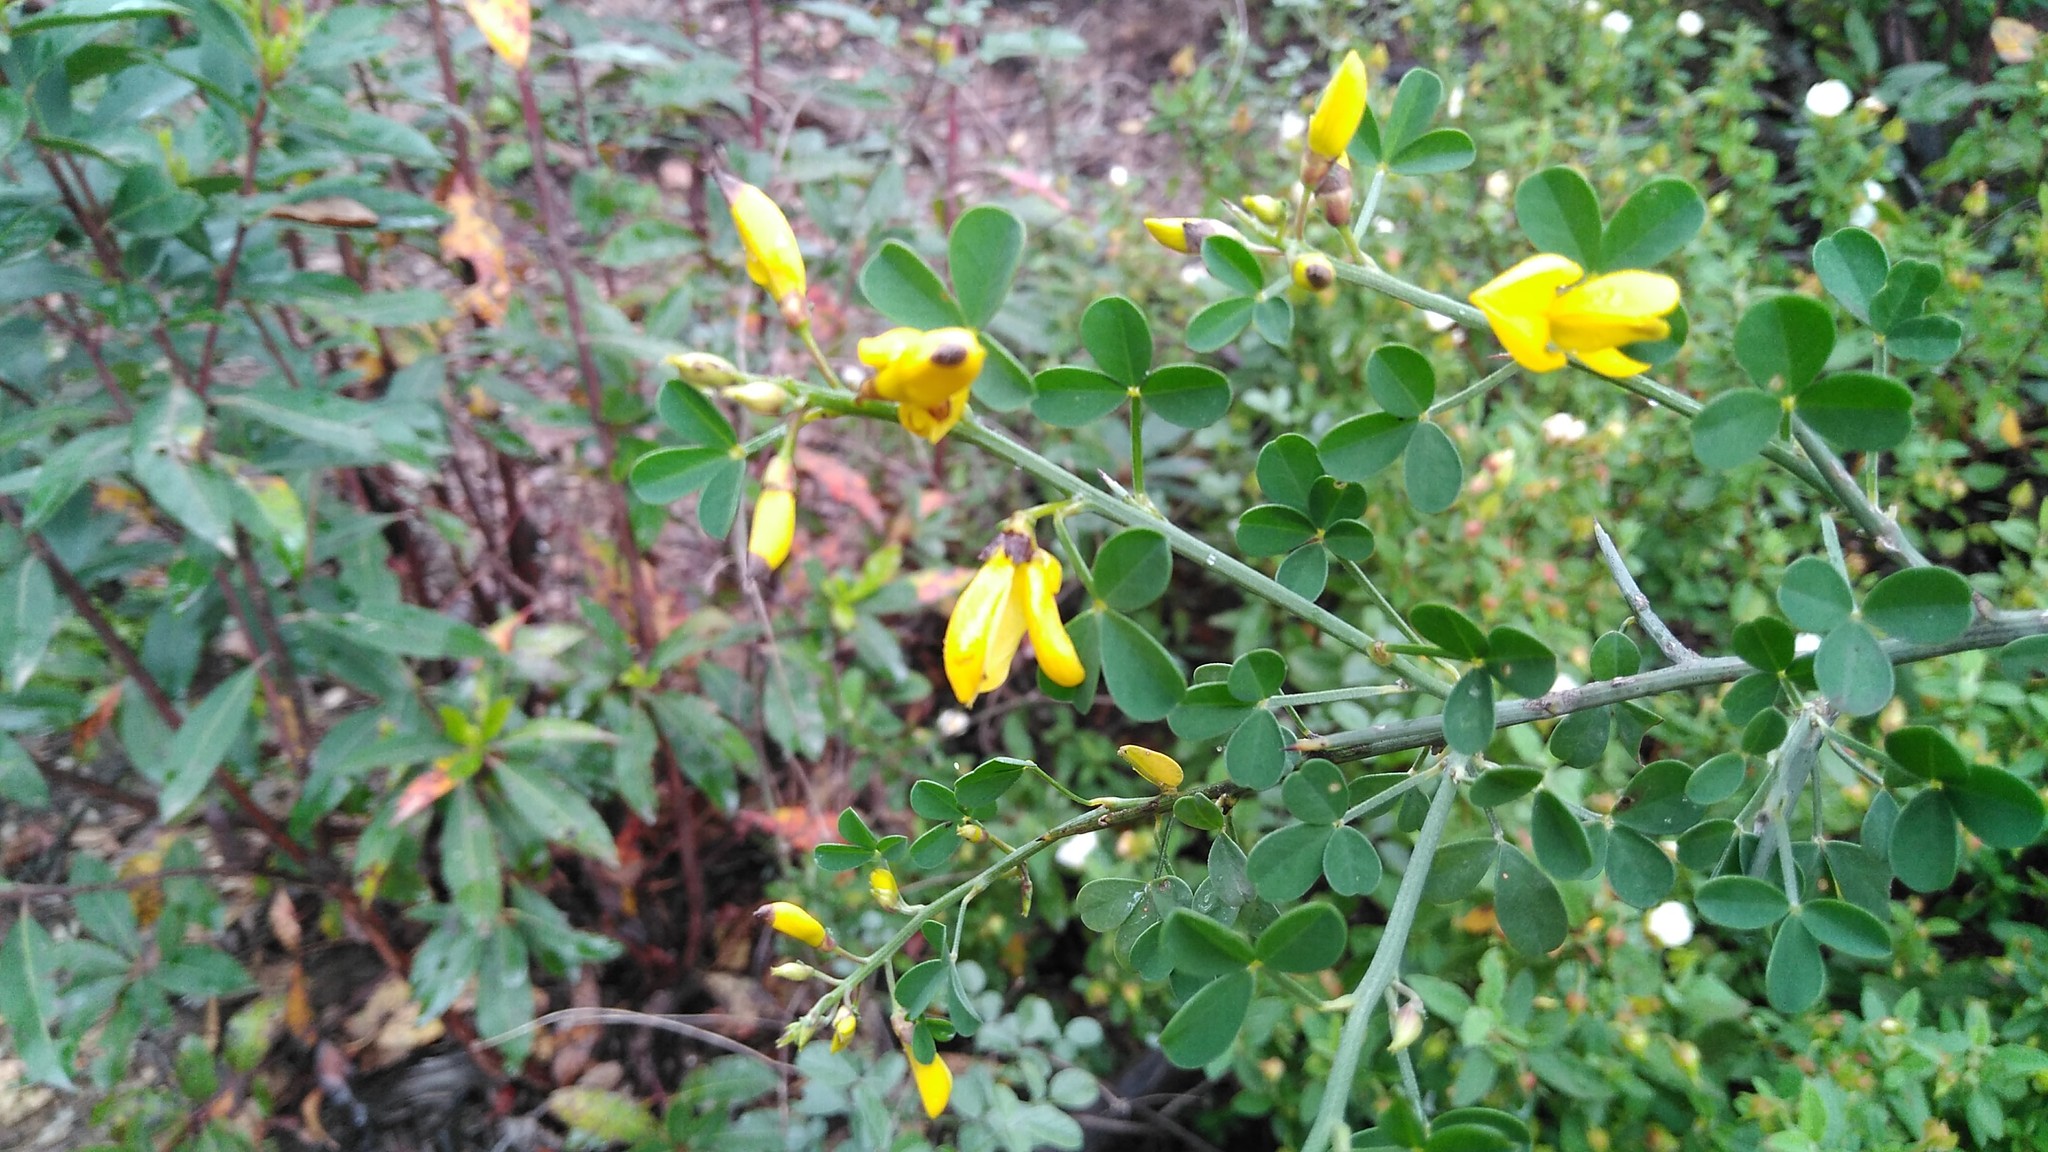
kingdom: Plantae
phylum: Tracheophyta
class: Magnoliopsida
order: Fabales
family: Fabaceae
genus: Calicotome
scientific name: Calicotome spinosa
